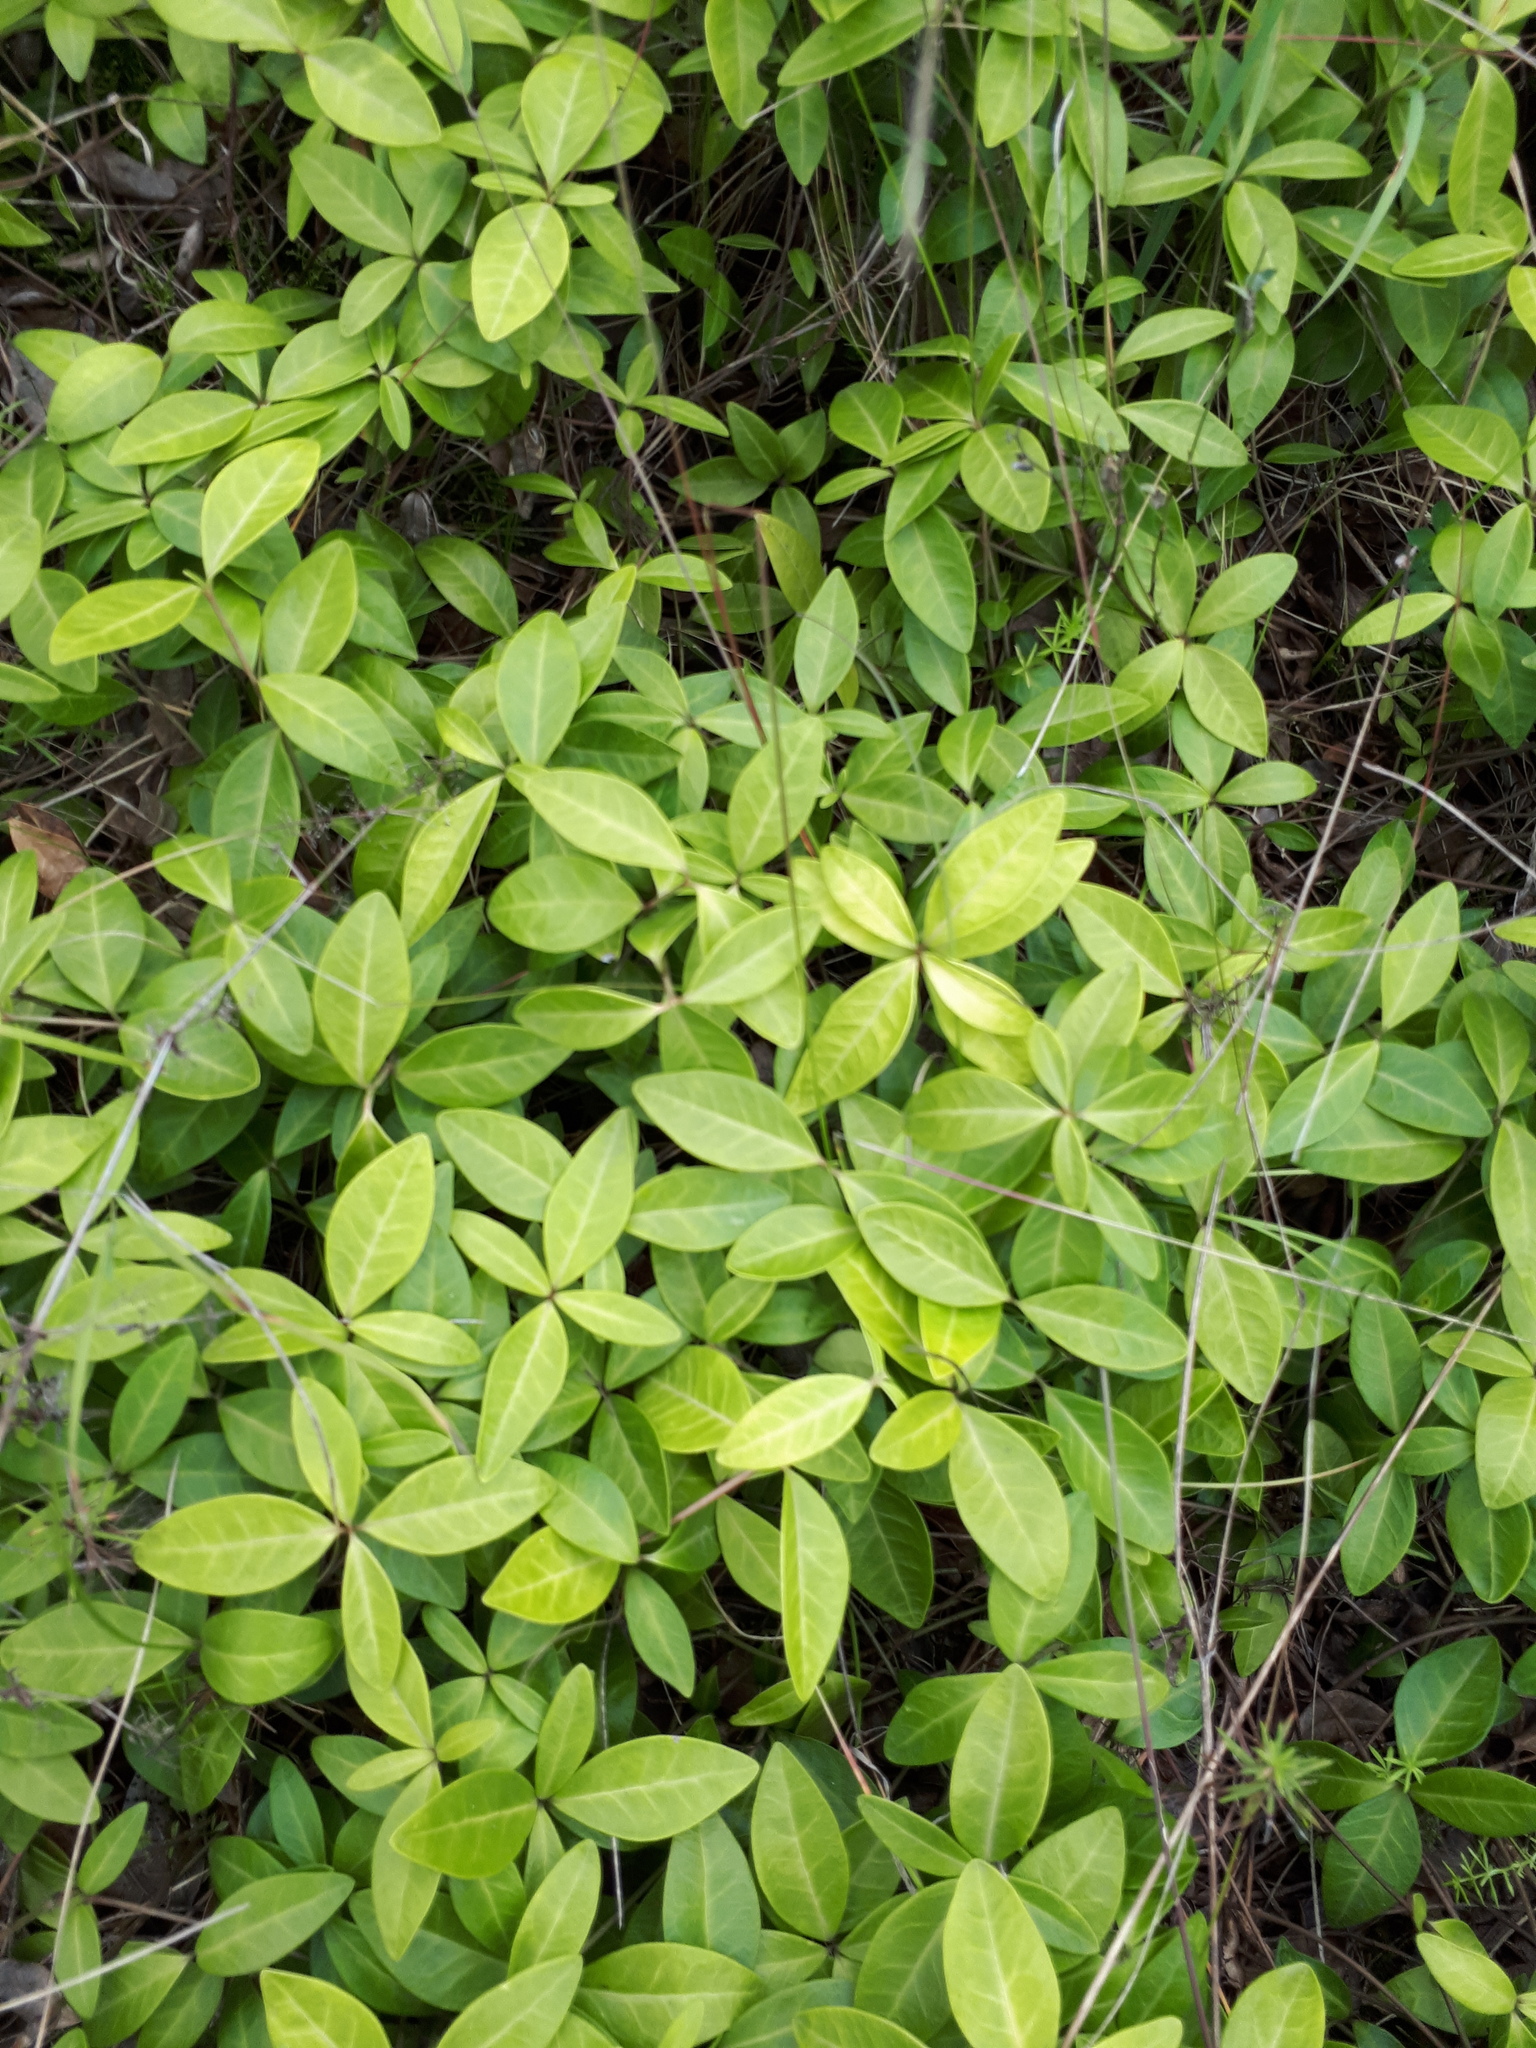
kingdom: Plantae
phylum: Tracheophyta
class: Magnoliopsida
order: Gentianales
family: Apocynaceae
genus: Vinca
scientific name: Vinca minor
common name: Lesser periwinkle
